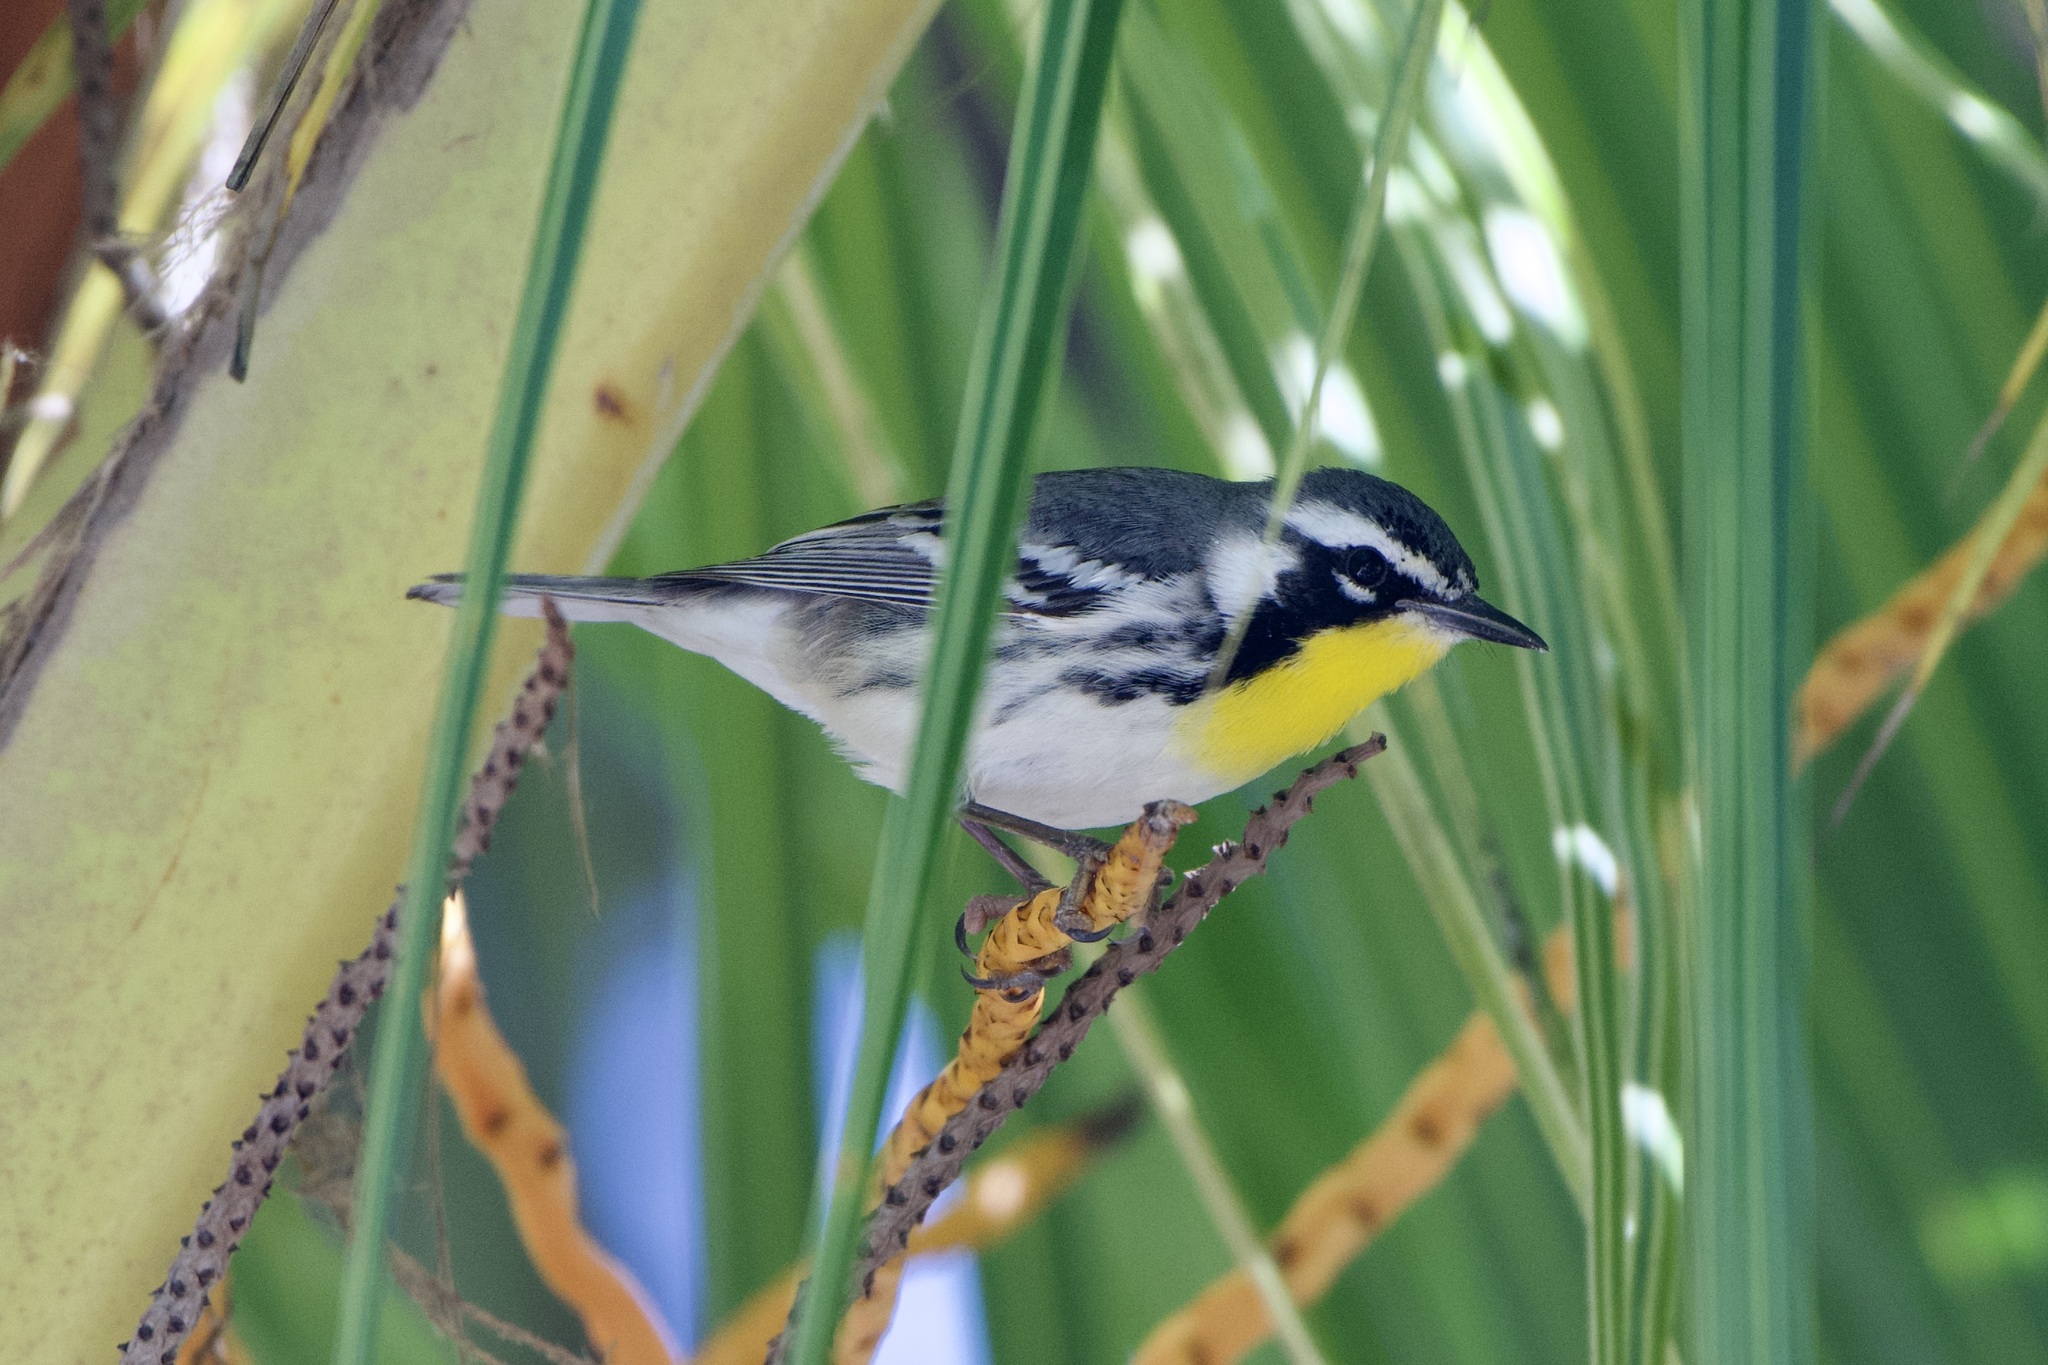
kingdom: Animalia
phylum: Chordata
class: Aves
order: Passeriformes
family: Parulidae
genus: Setophaga
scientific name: Setophaga dominica
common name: Yellow-throated warbler
